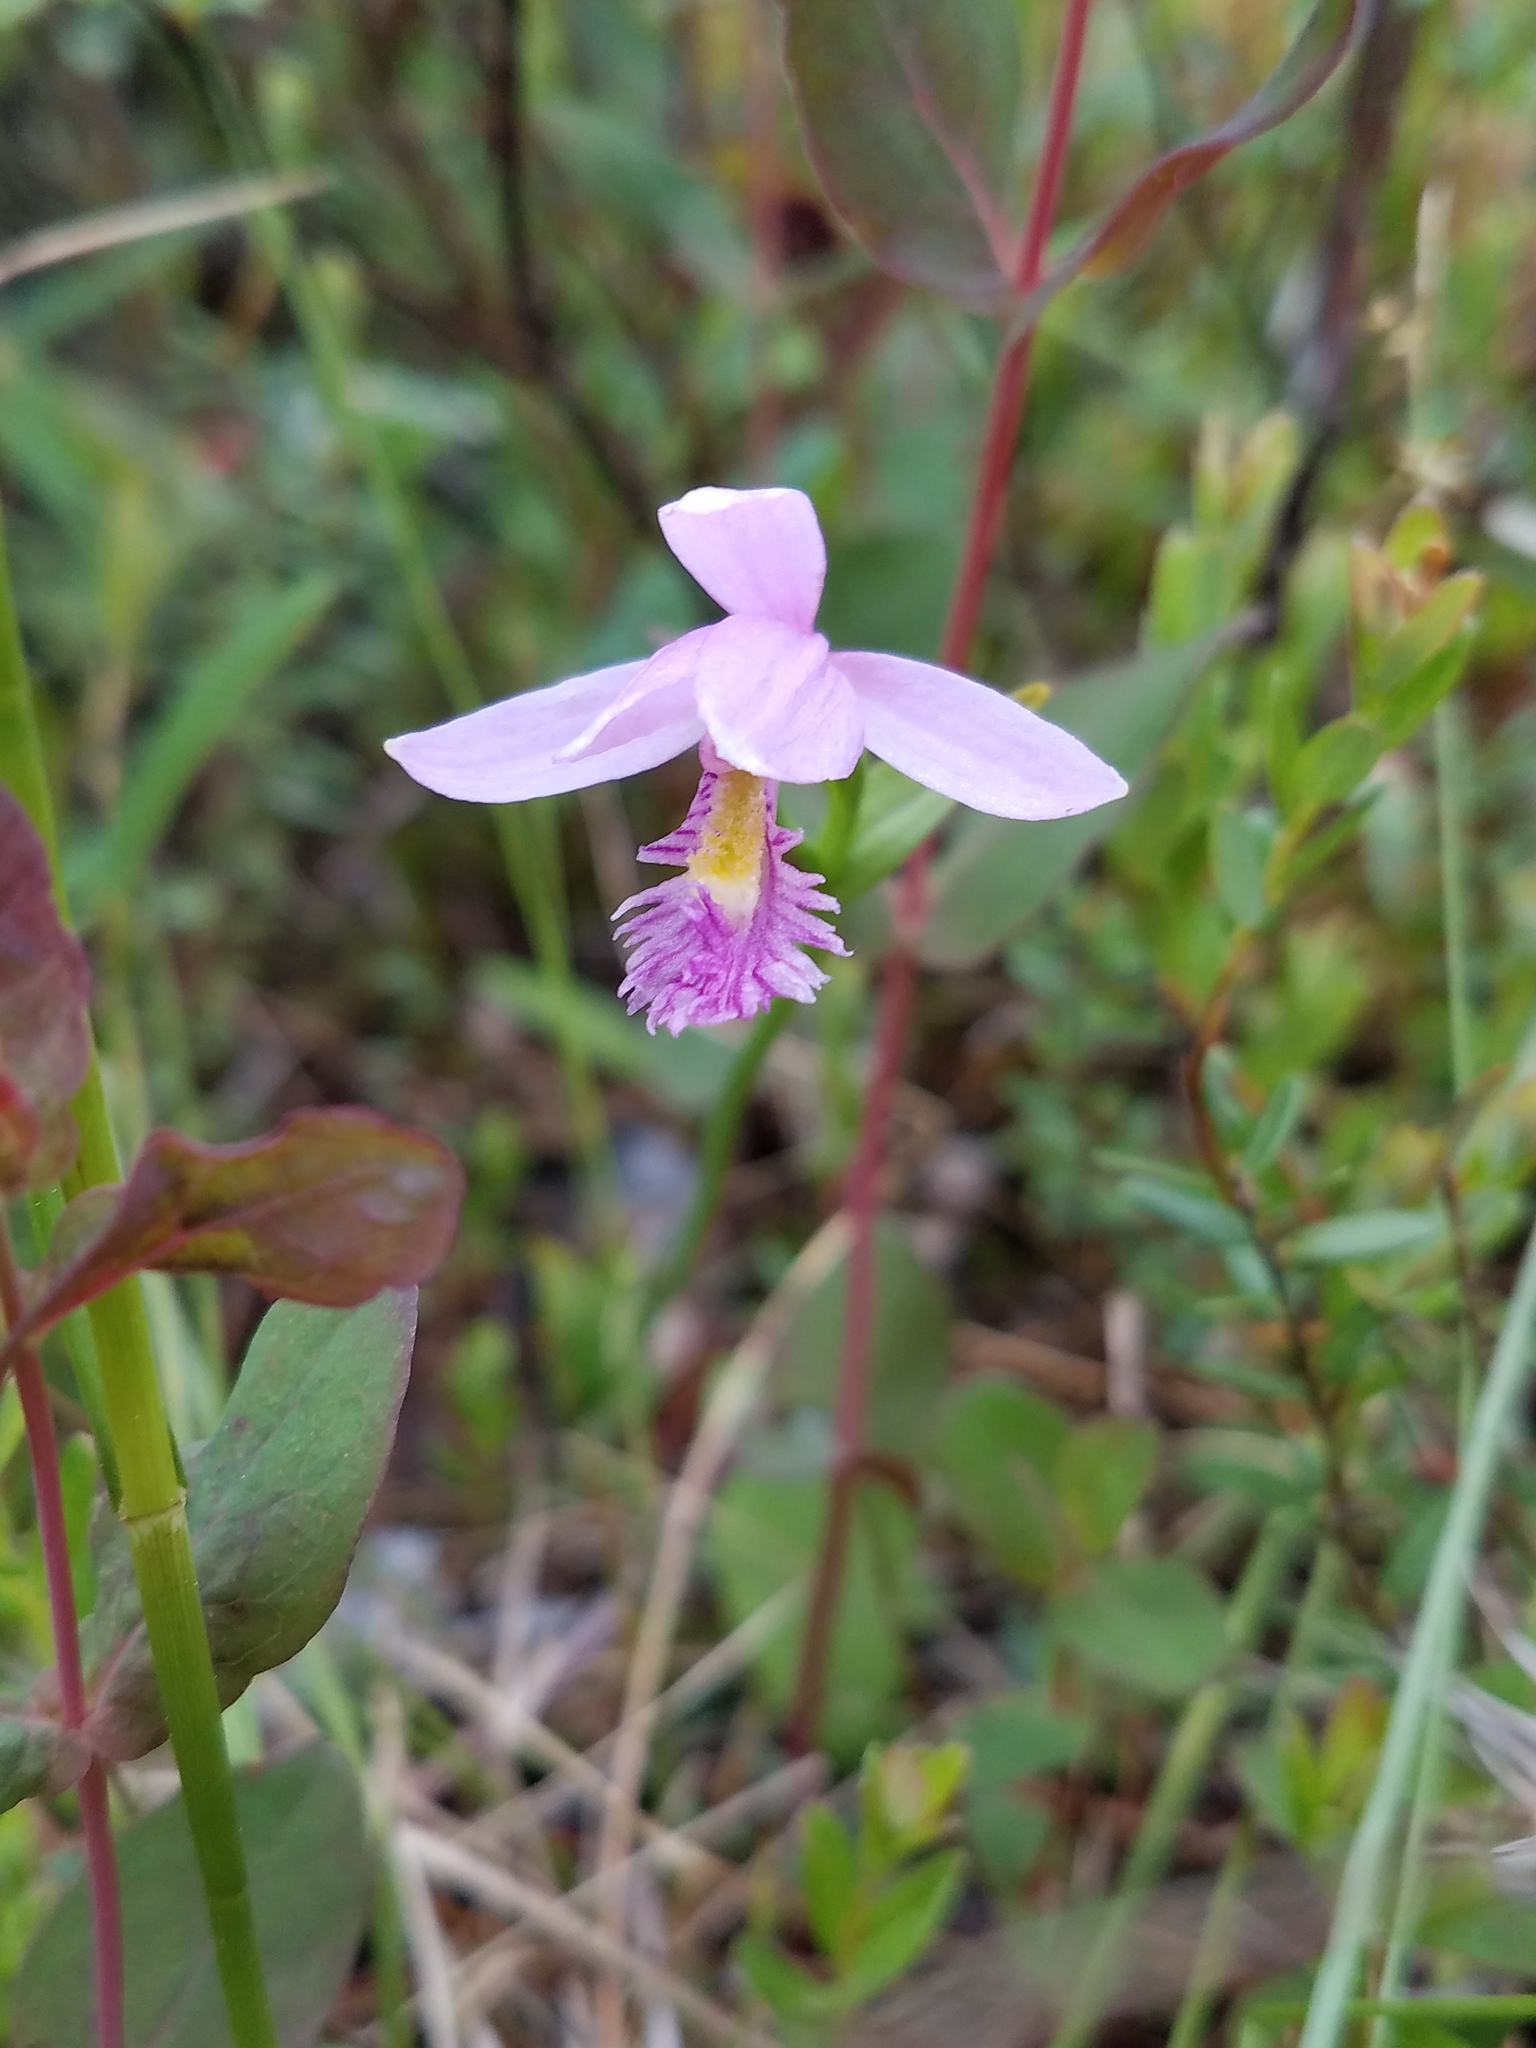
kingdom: Plantae
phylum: Tracheophyta
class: Liliopsida
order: Asparagales
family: Orchidaceae
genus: Pogonia
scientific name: Pogonia ophioglossoides
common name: Rose pogonia
